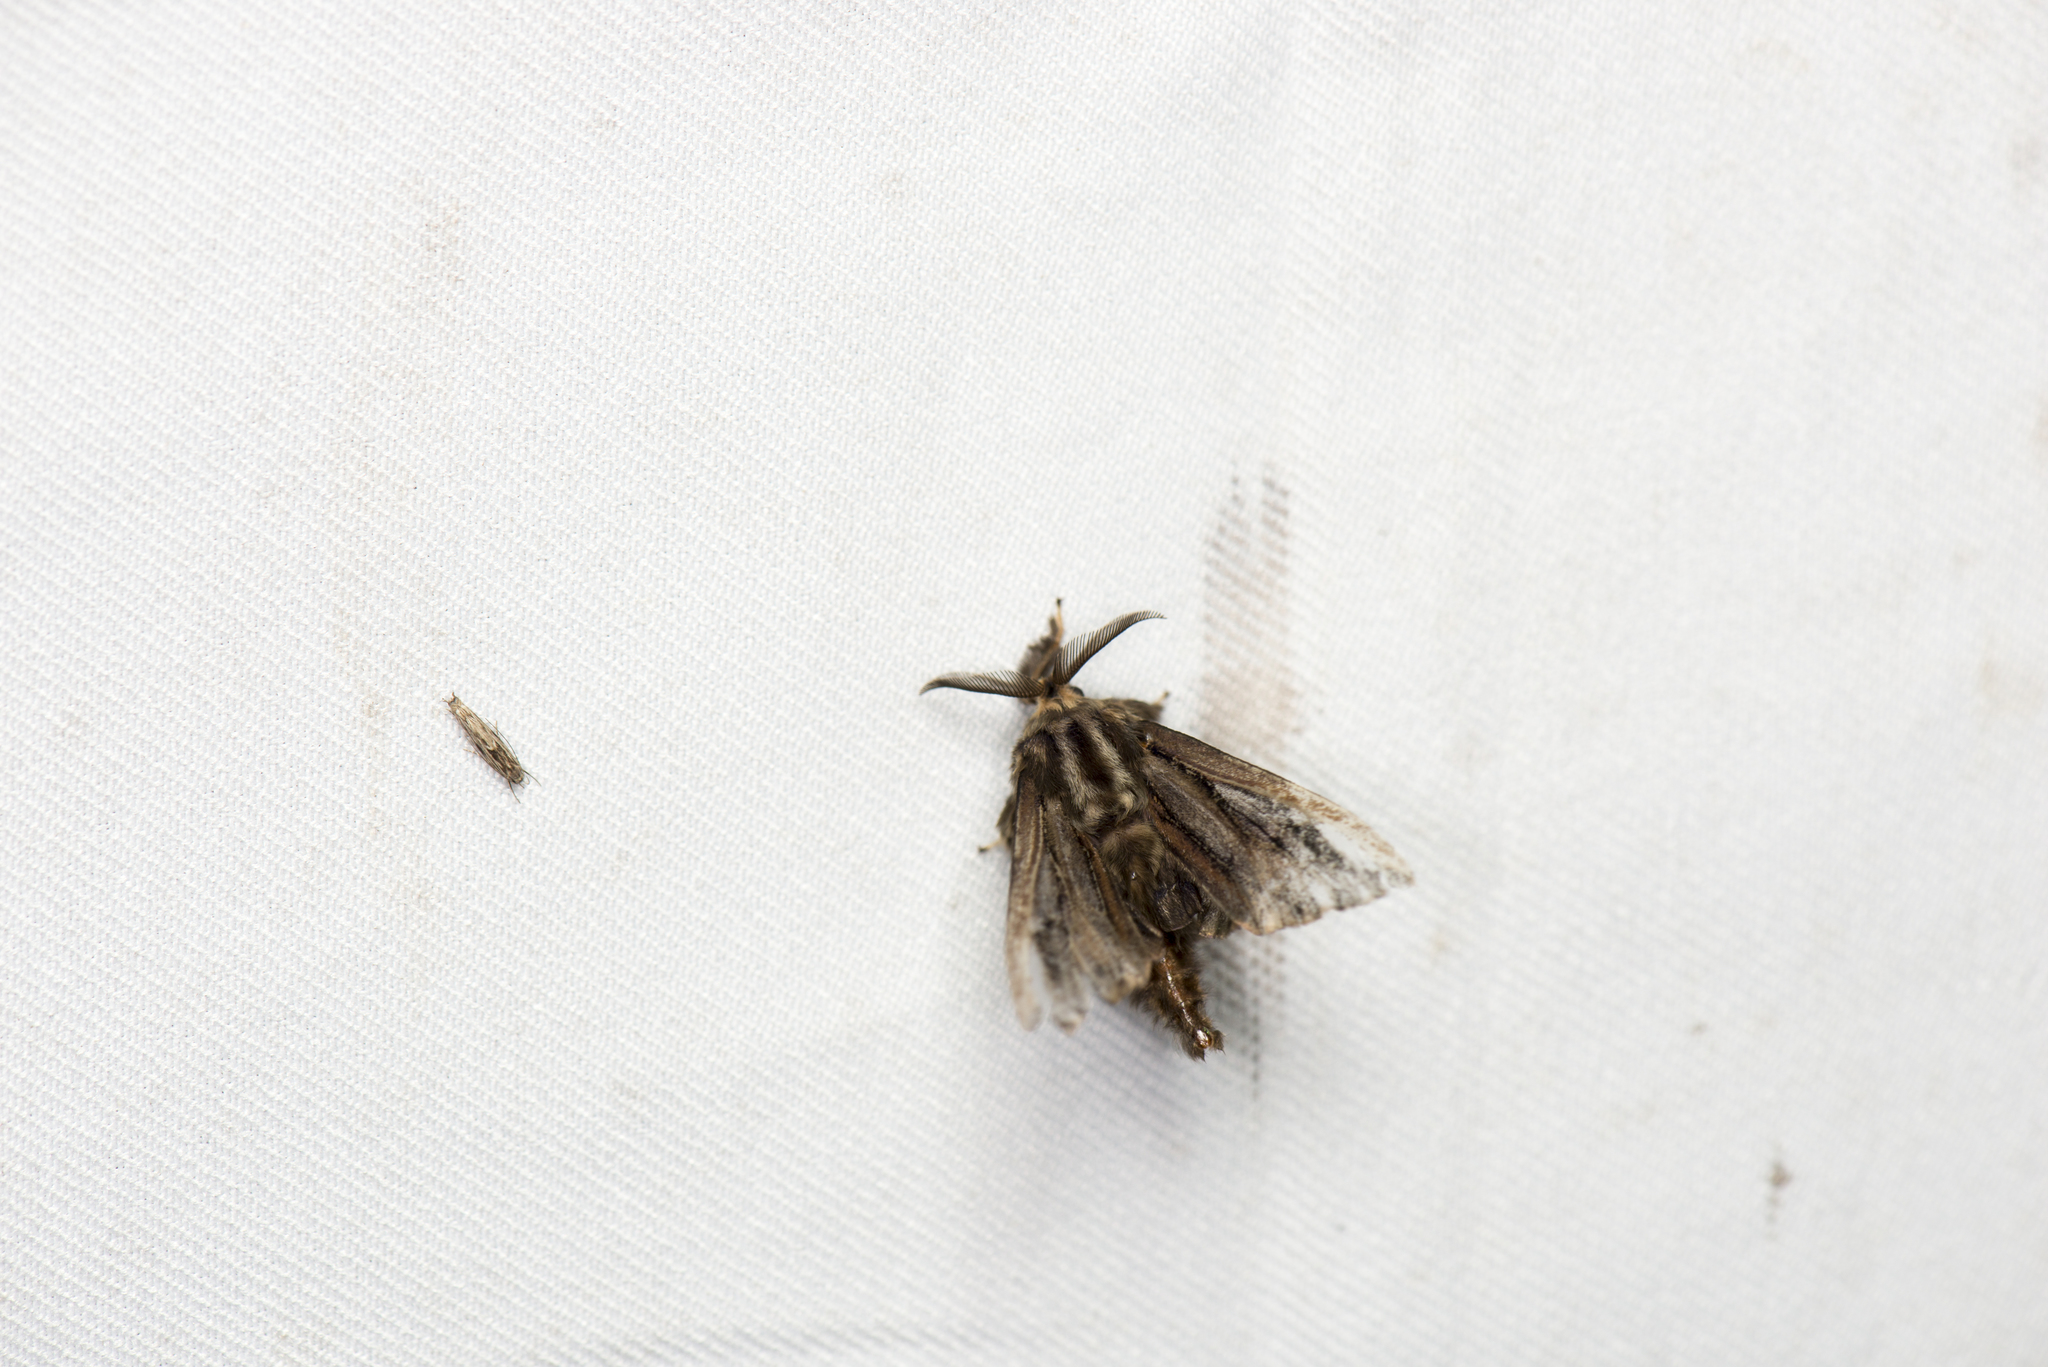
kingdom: Animalia
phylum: Arthropoda
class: Insecta
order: Lepidoptera
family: Psychidae
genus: Eumeta
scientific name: Eumeta variegatus
